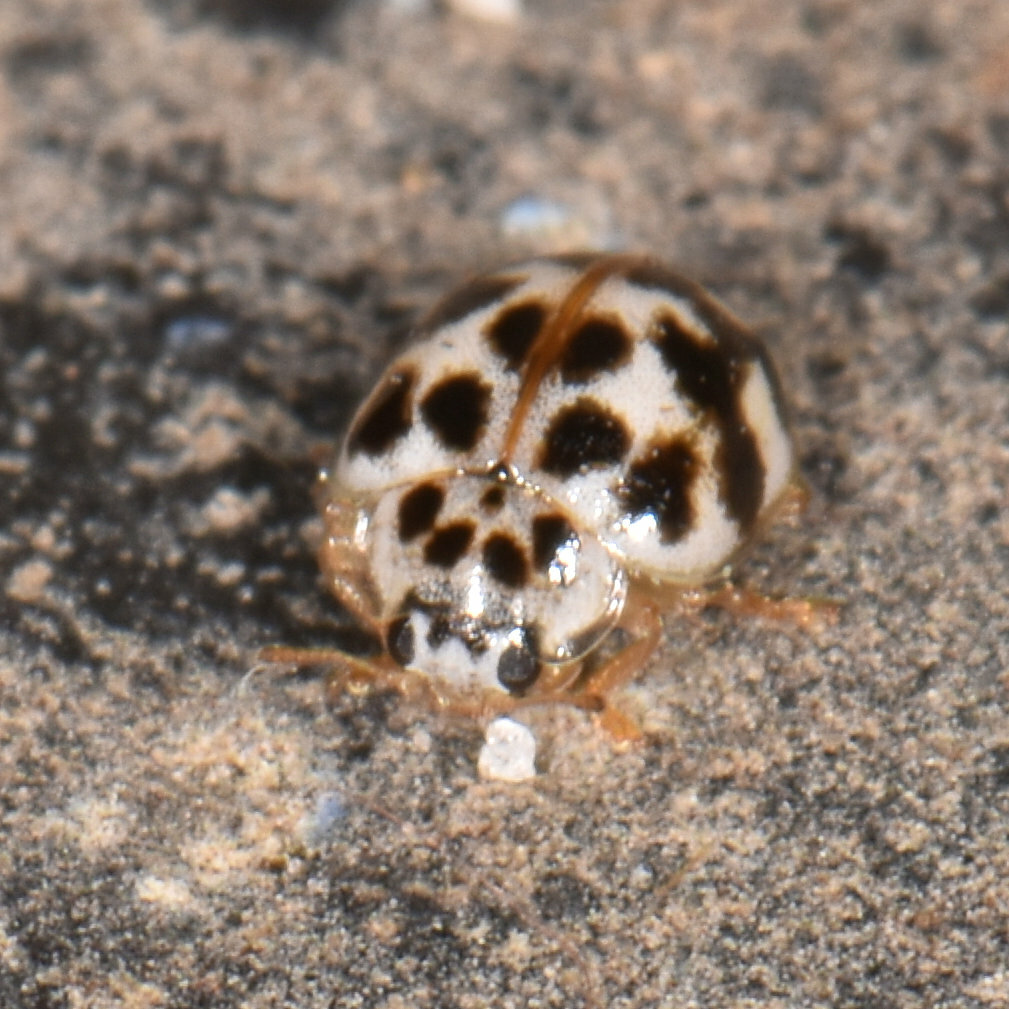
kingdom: Animalia
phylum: Arthropoda
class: Insecta
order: Coleoptera
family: Coccinellidae
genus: Psyllobora
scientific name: Psyllobora vigintimaculata
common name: Ladybird beetle
